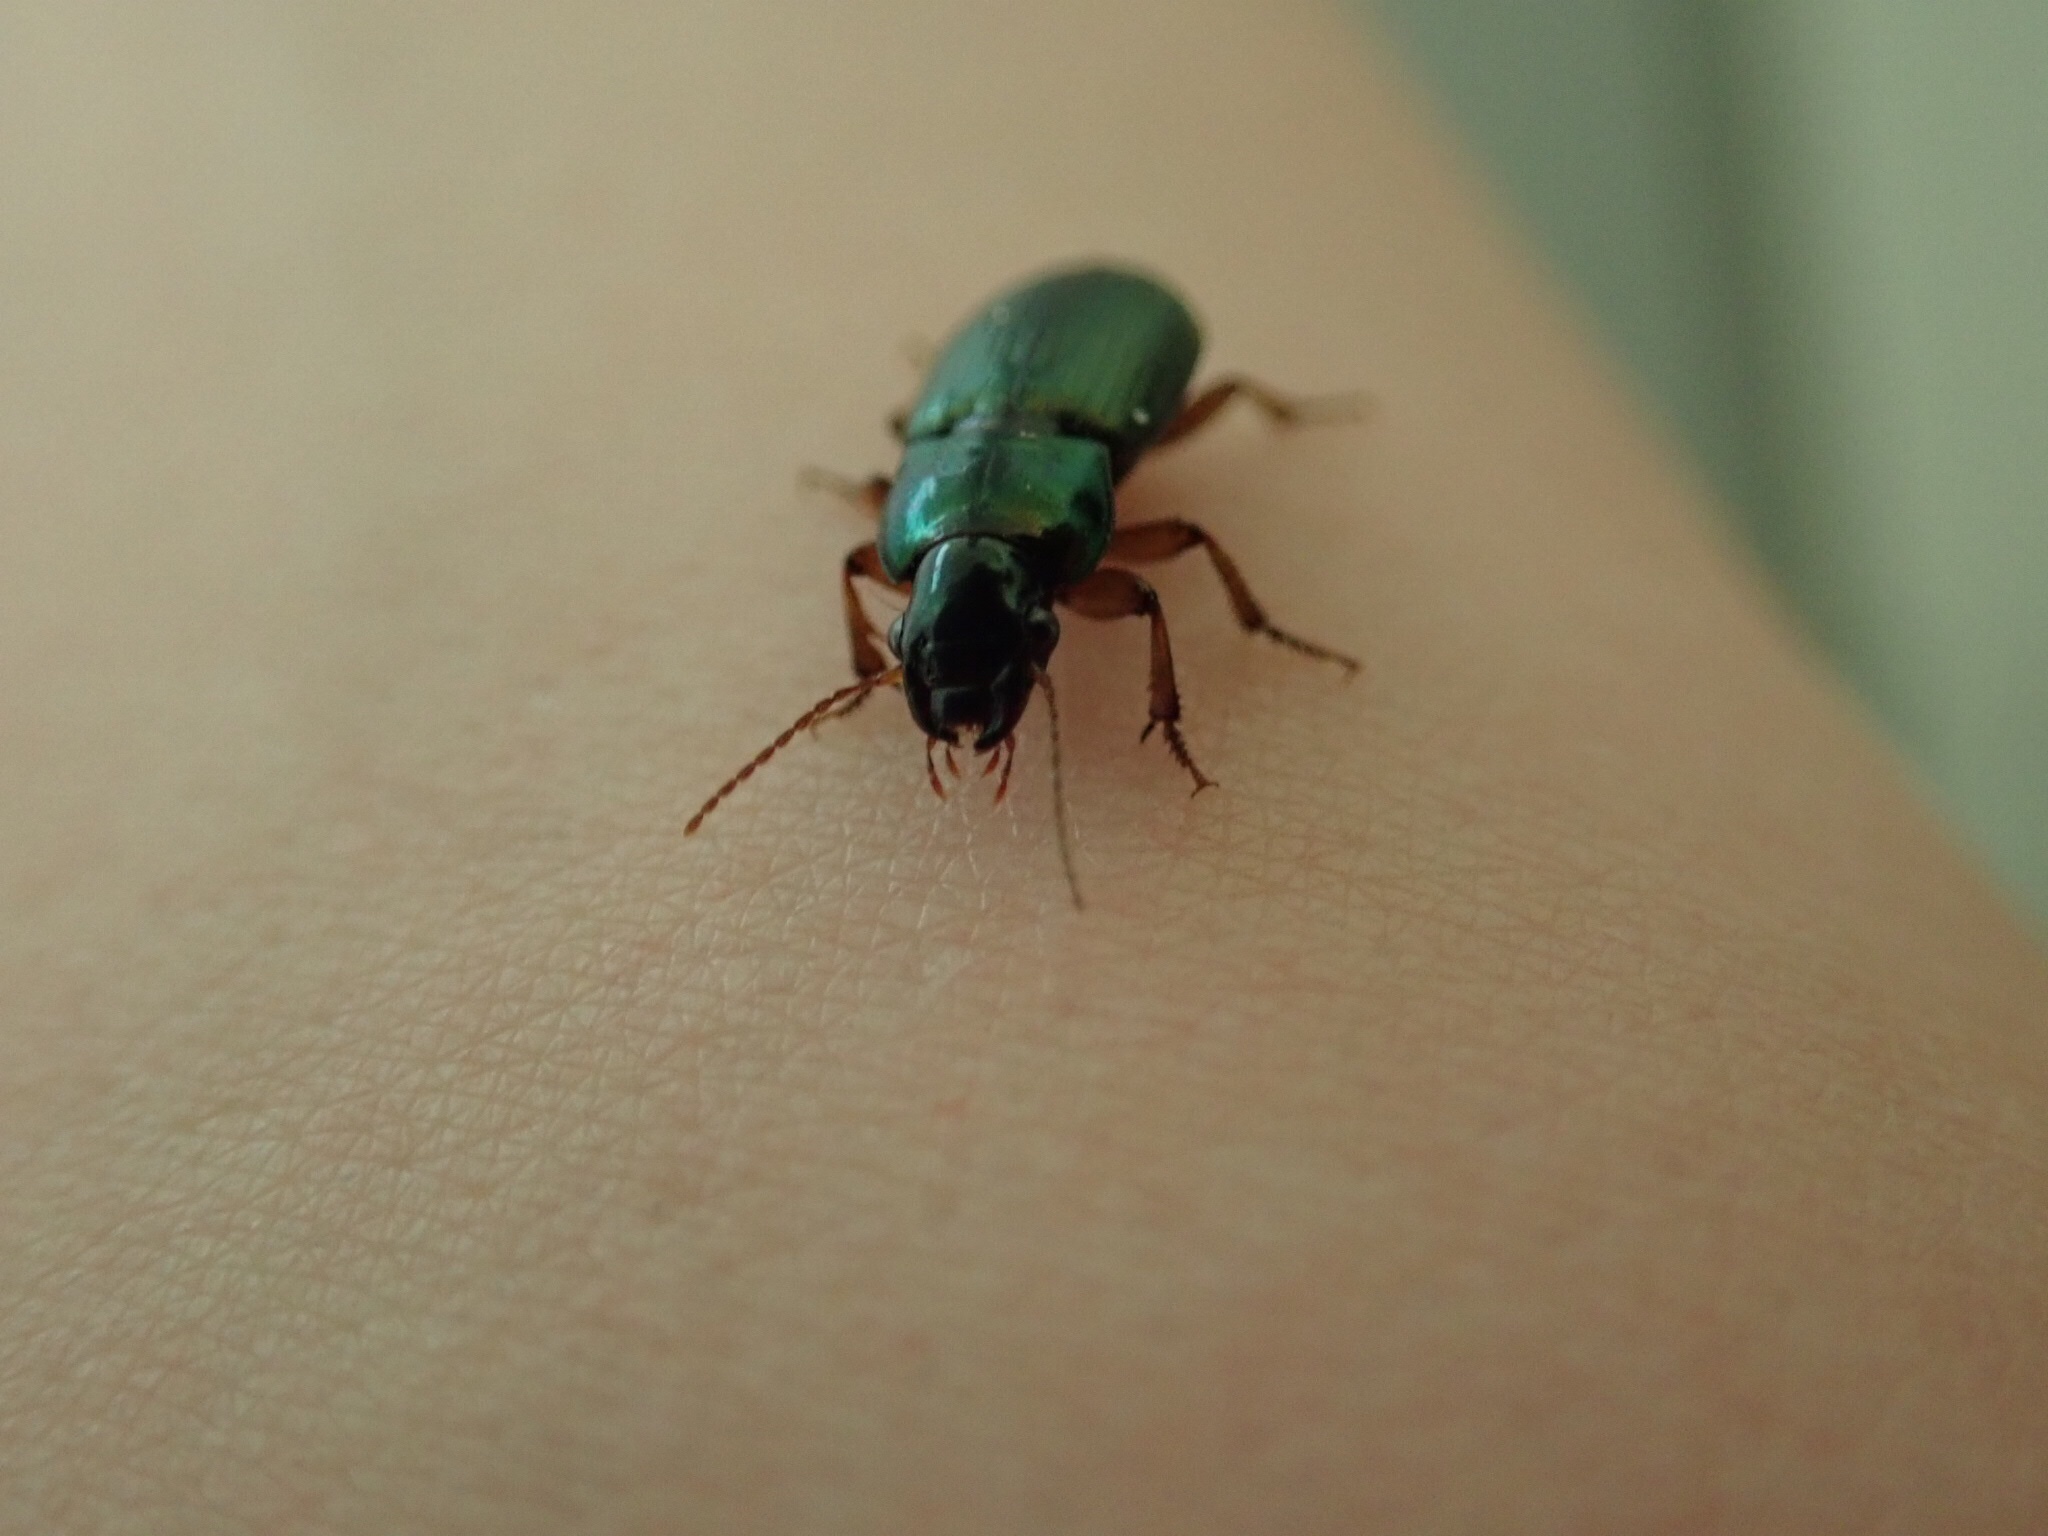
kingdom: Animalia
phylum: Arthropoda
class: Insecta
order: Coleoptera
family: Carabidae
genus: Harpalus
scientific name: Harpalus affinis
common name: Polychrome harp ground beetle
